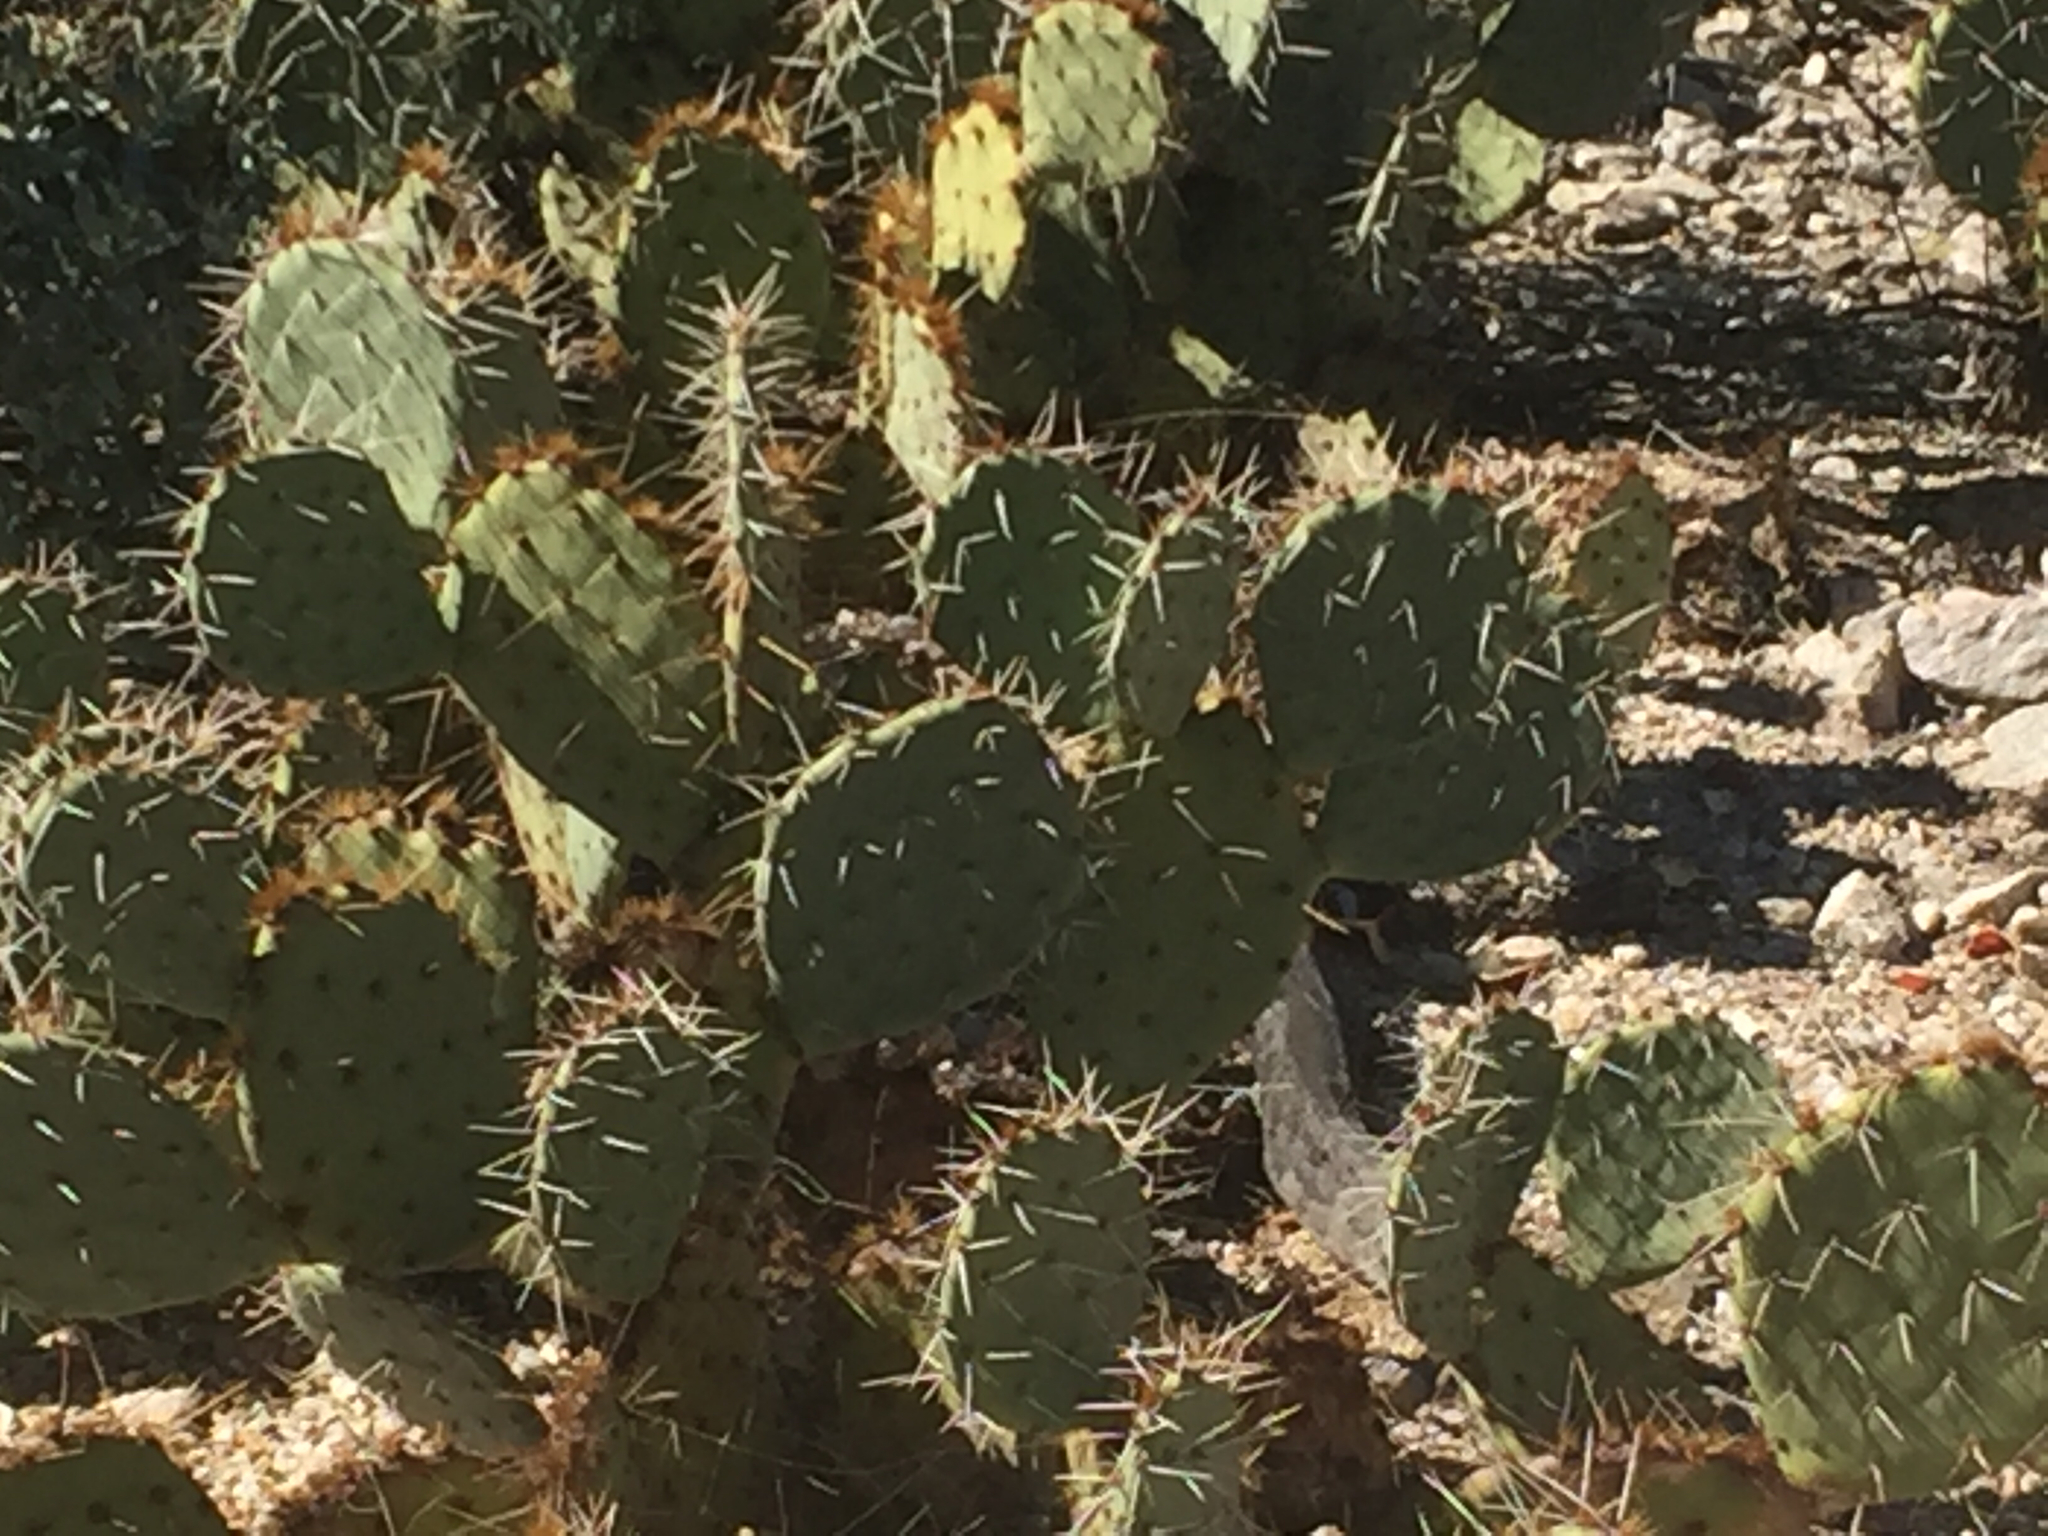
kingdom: Plantae
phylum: Tracheophyta
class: Magnoliopsida
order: Caryophyllales
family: Cactaceae
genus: Opuntia
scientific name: Opuntia engelmannii
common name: Cactus-apple
